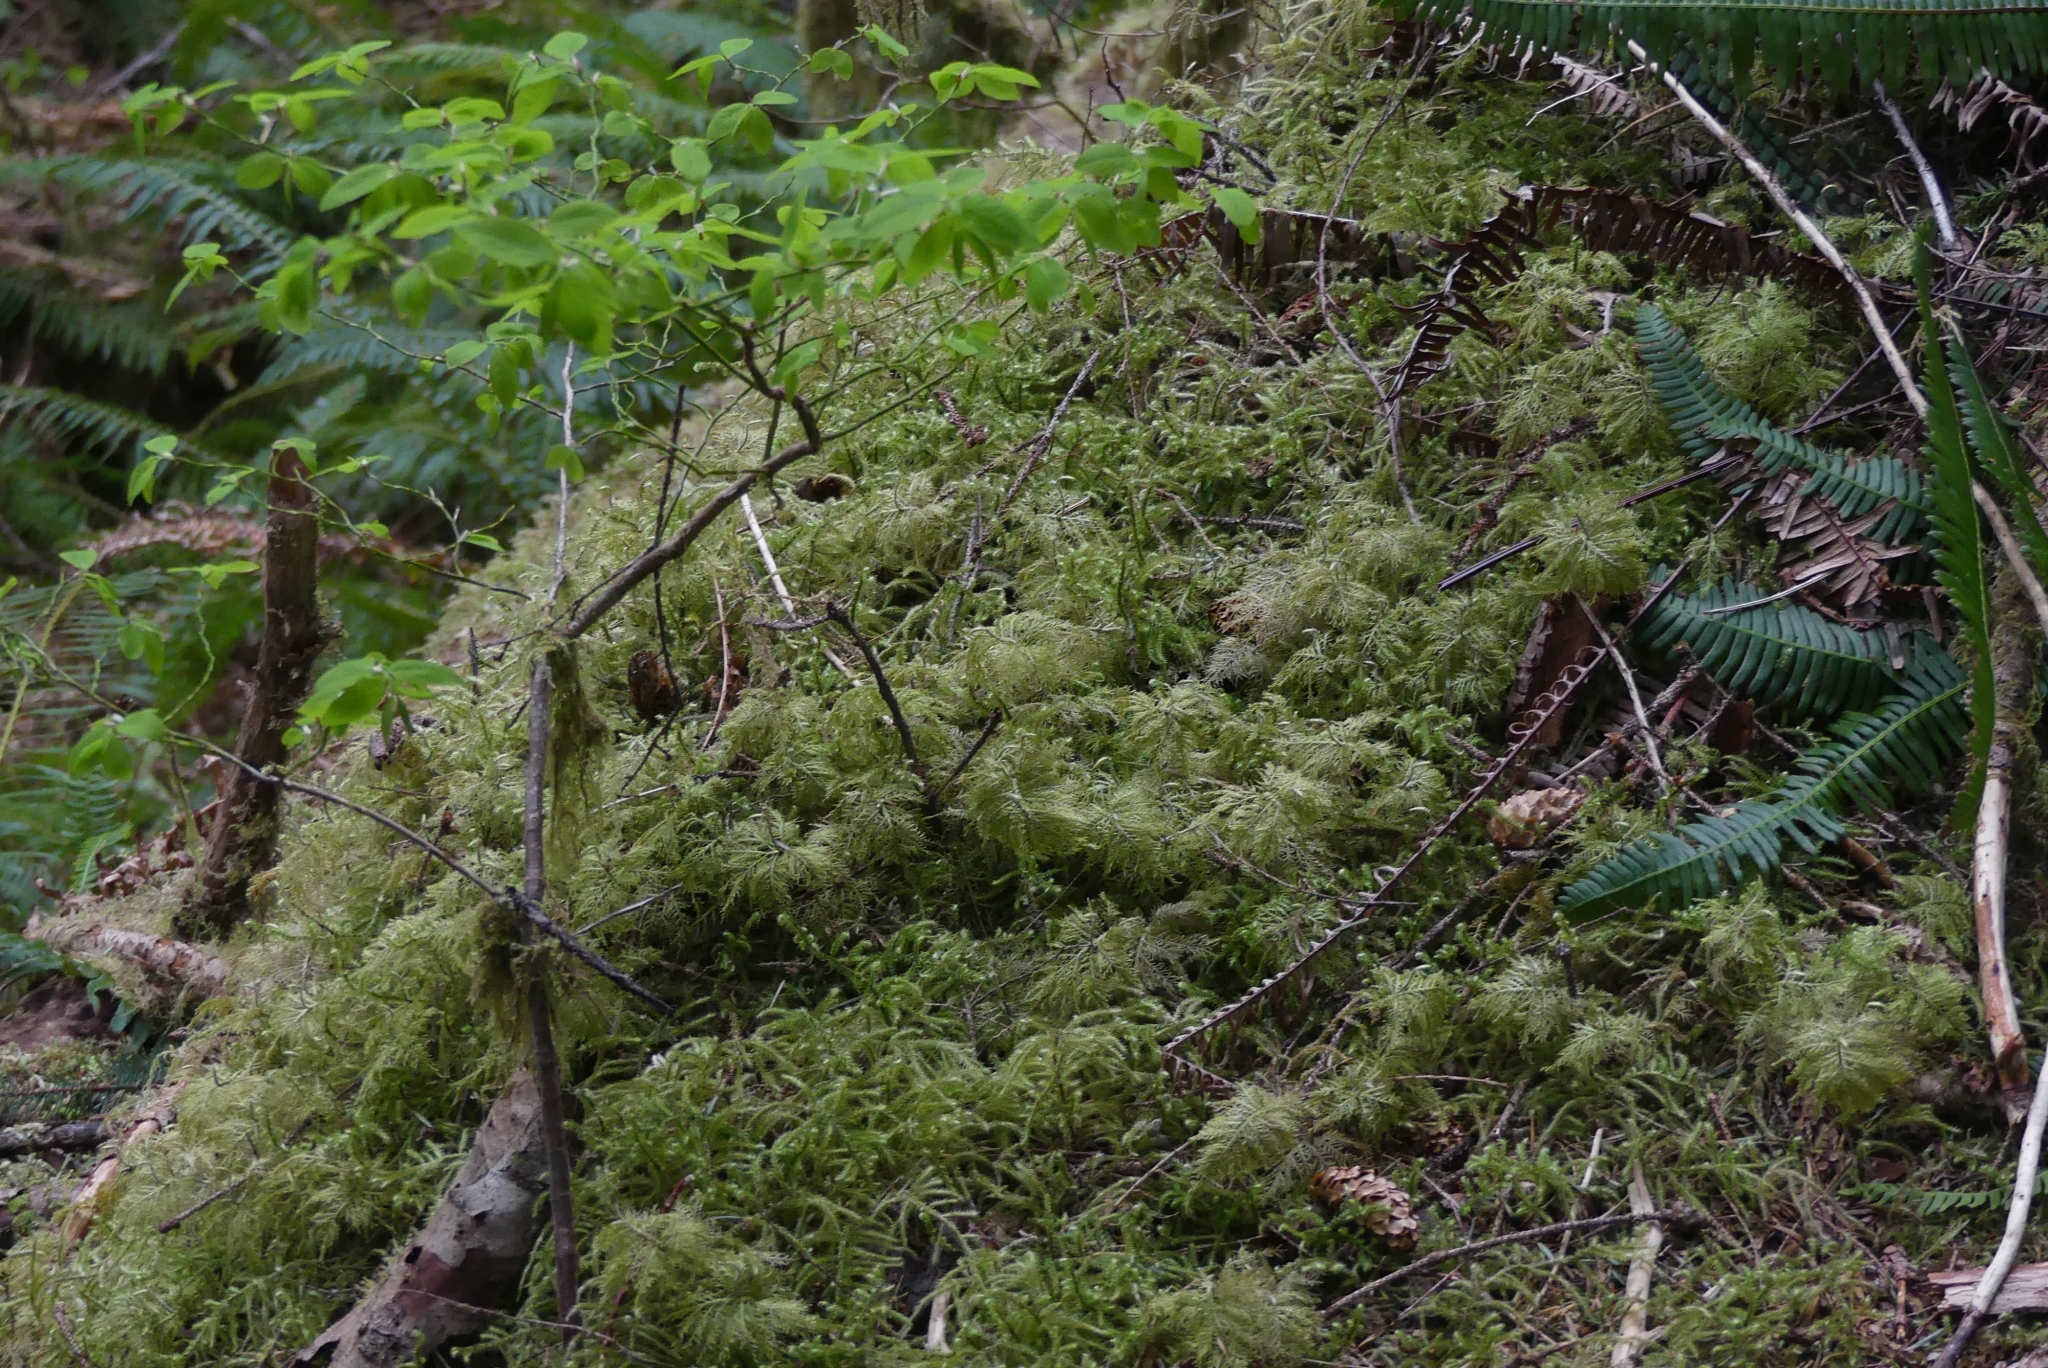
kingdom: Plantae
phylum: Bryophyta
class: Bryopsida
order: Hypnales
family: Hylocomiaceae
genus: Hylocomium
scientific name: Hylocomium splendens
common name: Stairstep moss
